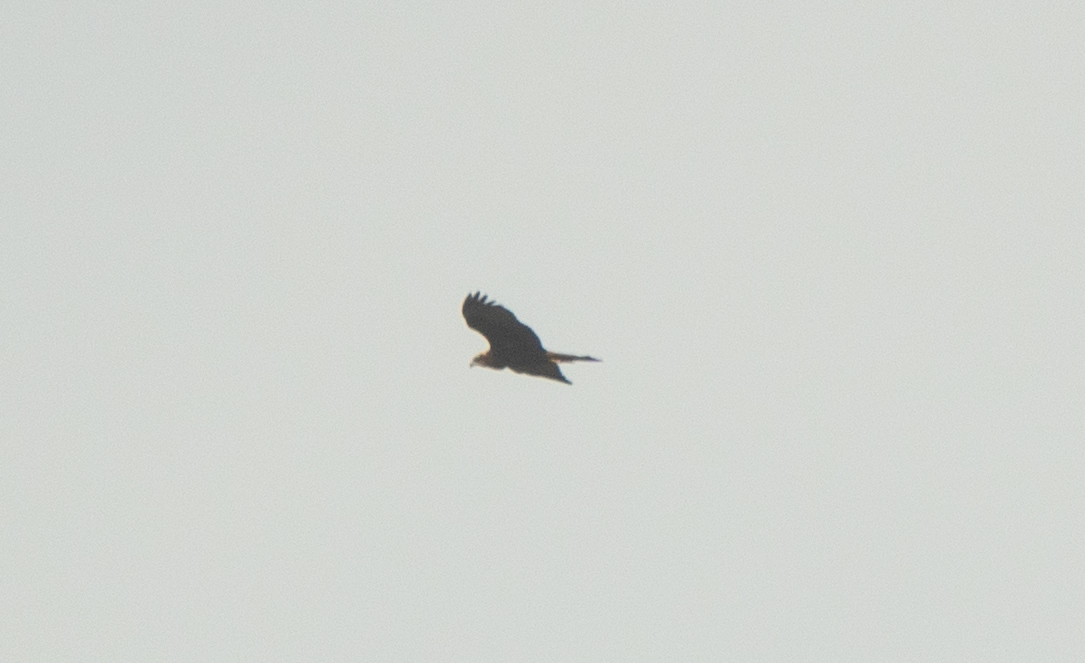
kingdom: Animalia
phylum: Chordata
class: Aves
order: Accipitriformes
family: Accipitridae
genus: Circus
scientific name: Circus aeruginosus
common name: Western marsh harrier
